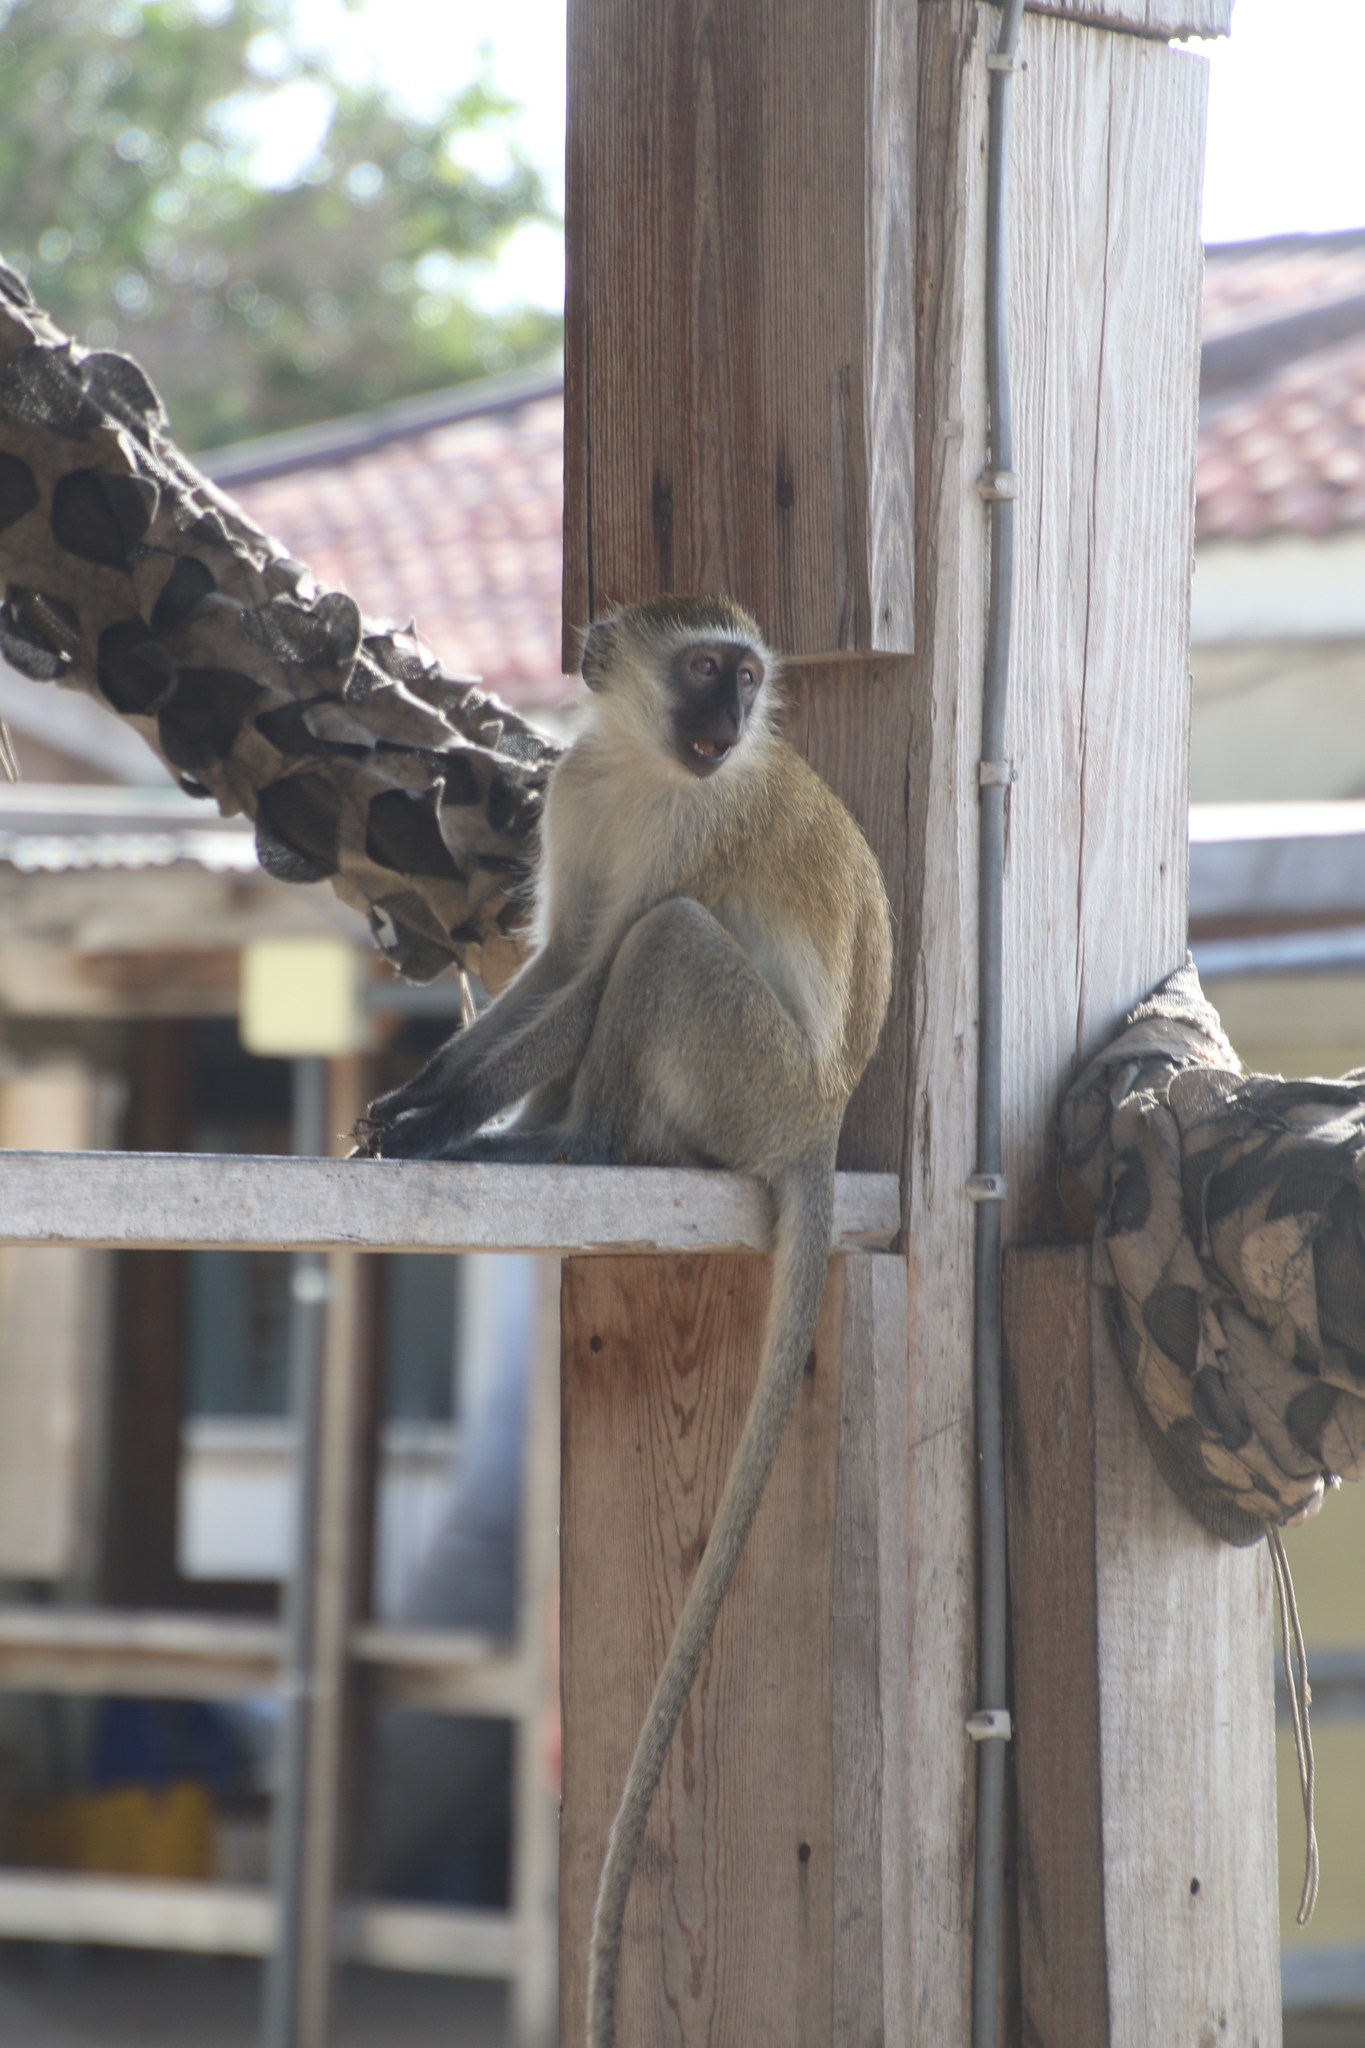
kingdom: Animalia
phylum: Chordata
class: Mammalia
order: Primates
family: Cercopithecidae
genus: Chlorocebus
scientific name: Chlorocebus pygerythrus
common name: Vervet monkey
